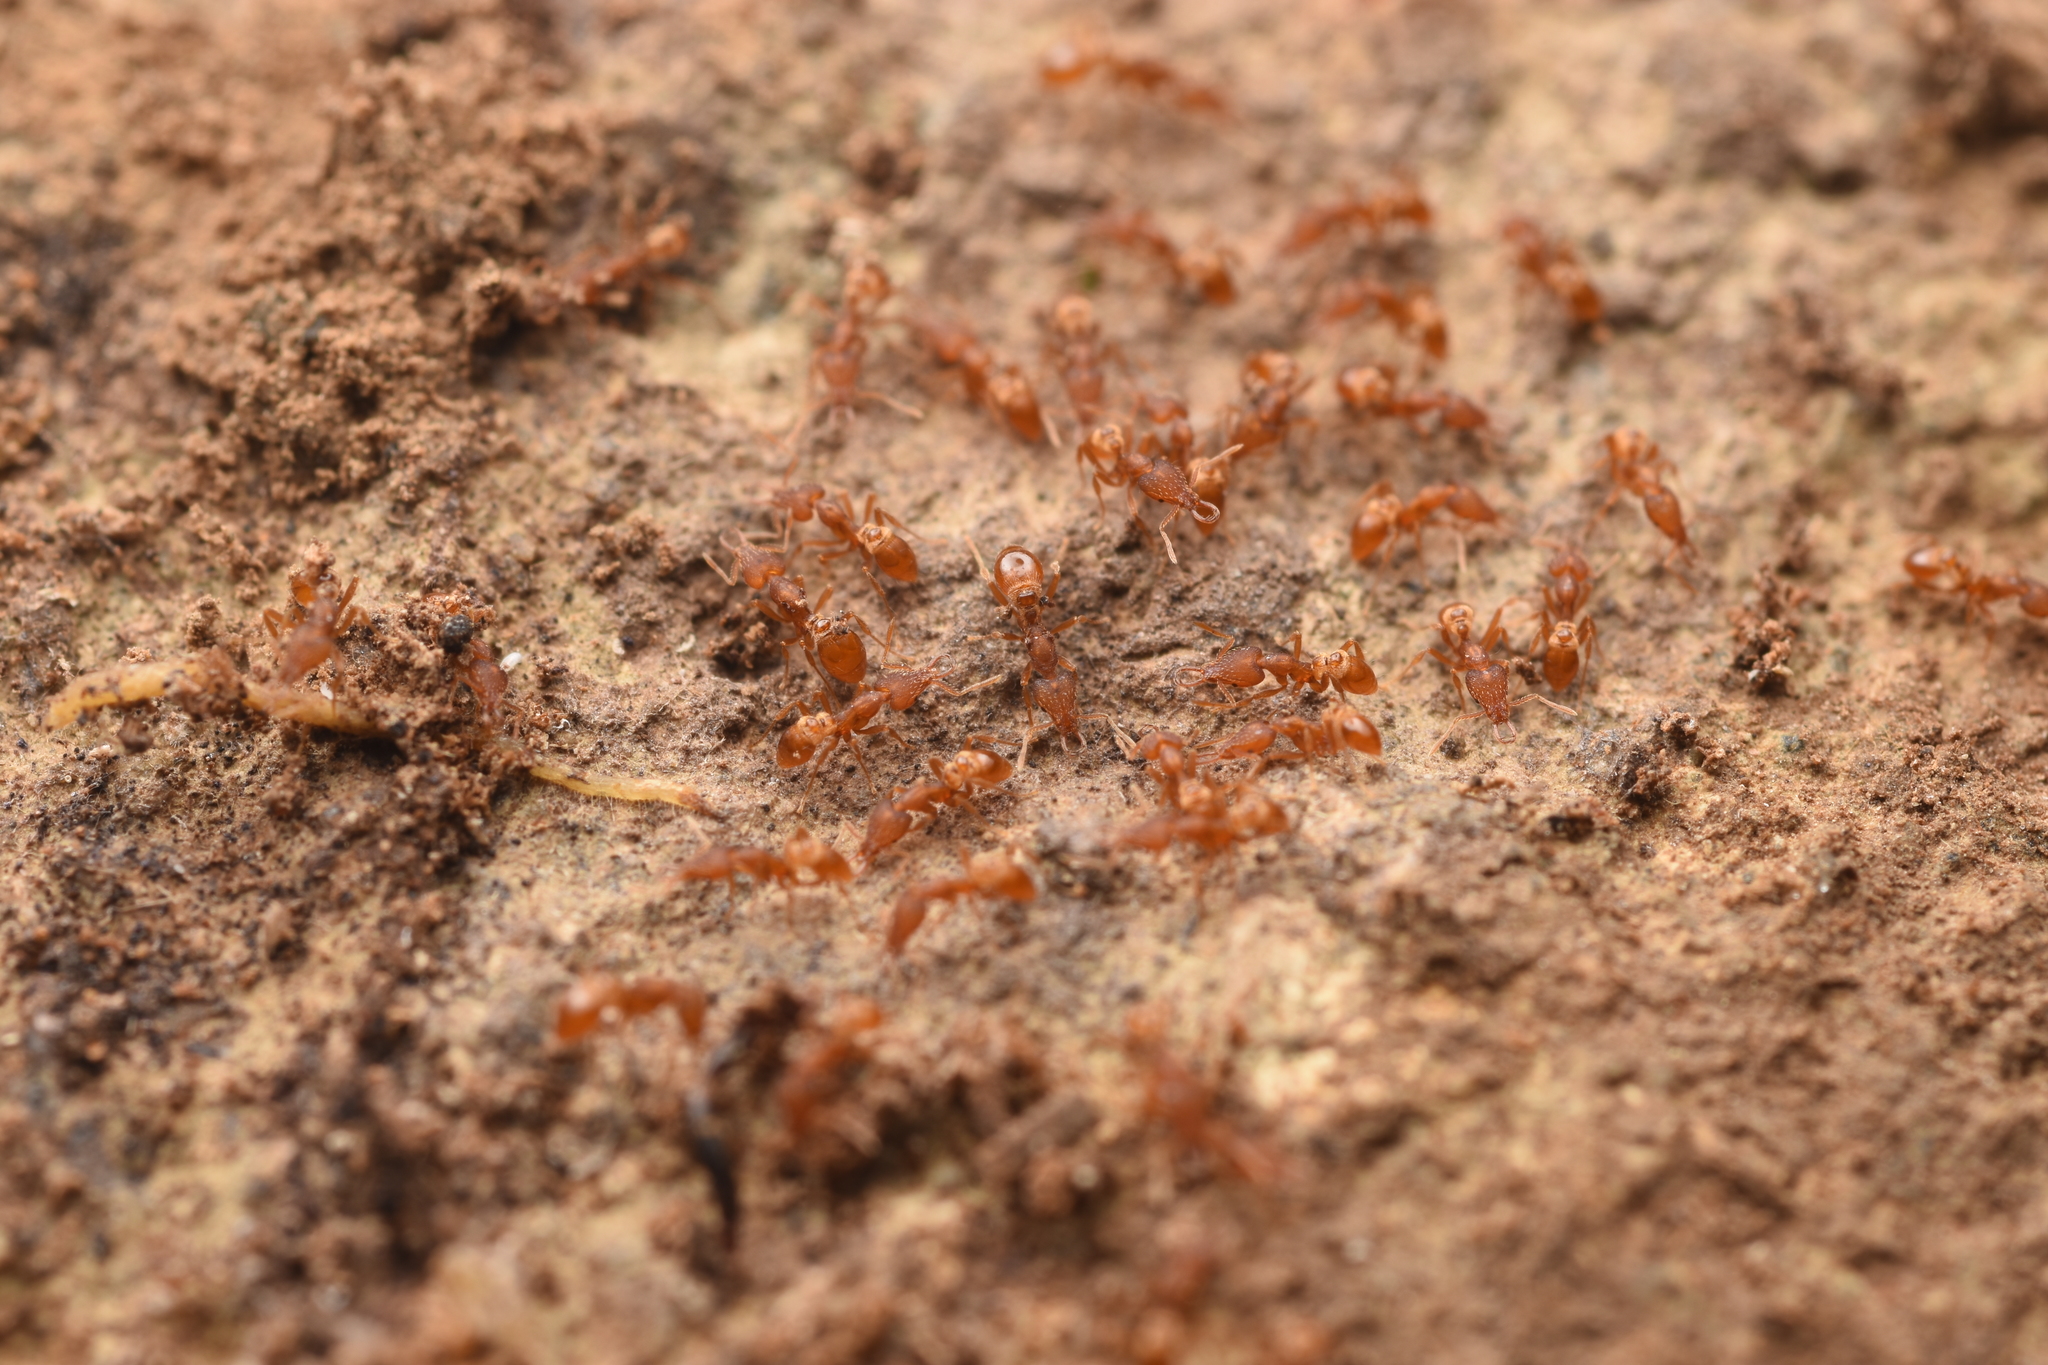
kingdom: Animalia
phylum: Arthropoda
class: Insecta
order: Hymenoptera
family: Formicidae
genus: Strumigenys
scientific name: Strumigenys lewisi
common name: Ant
